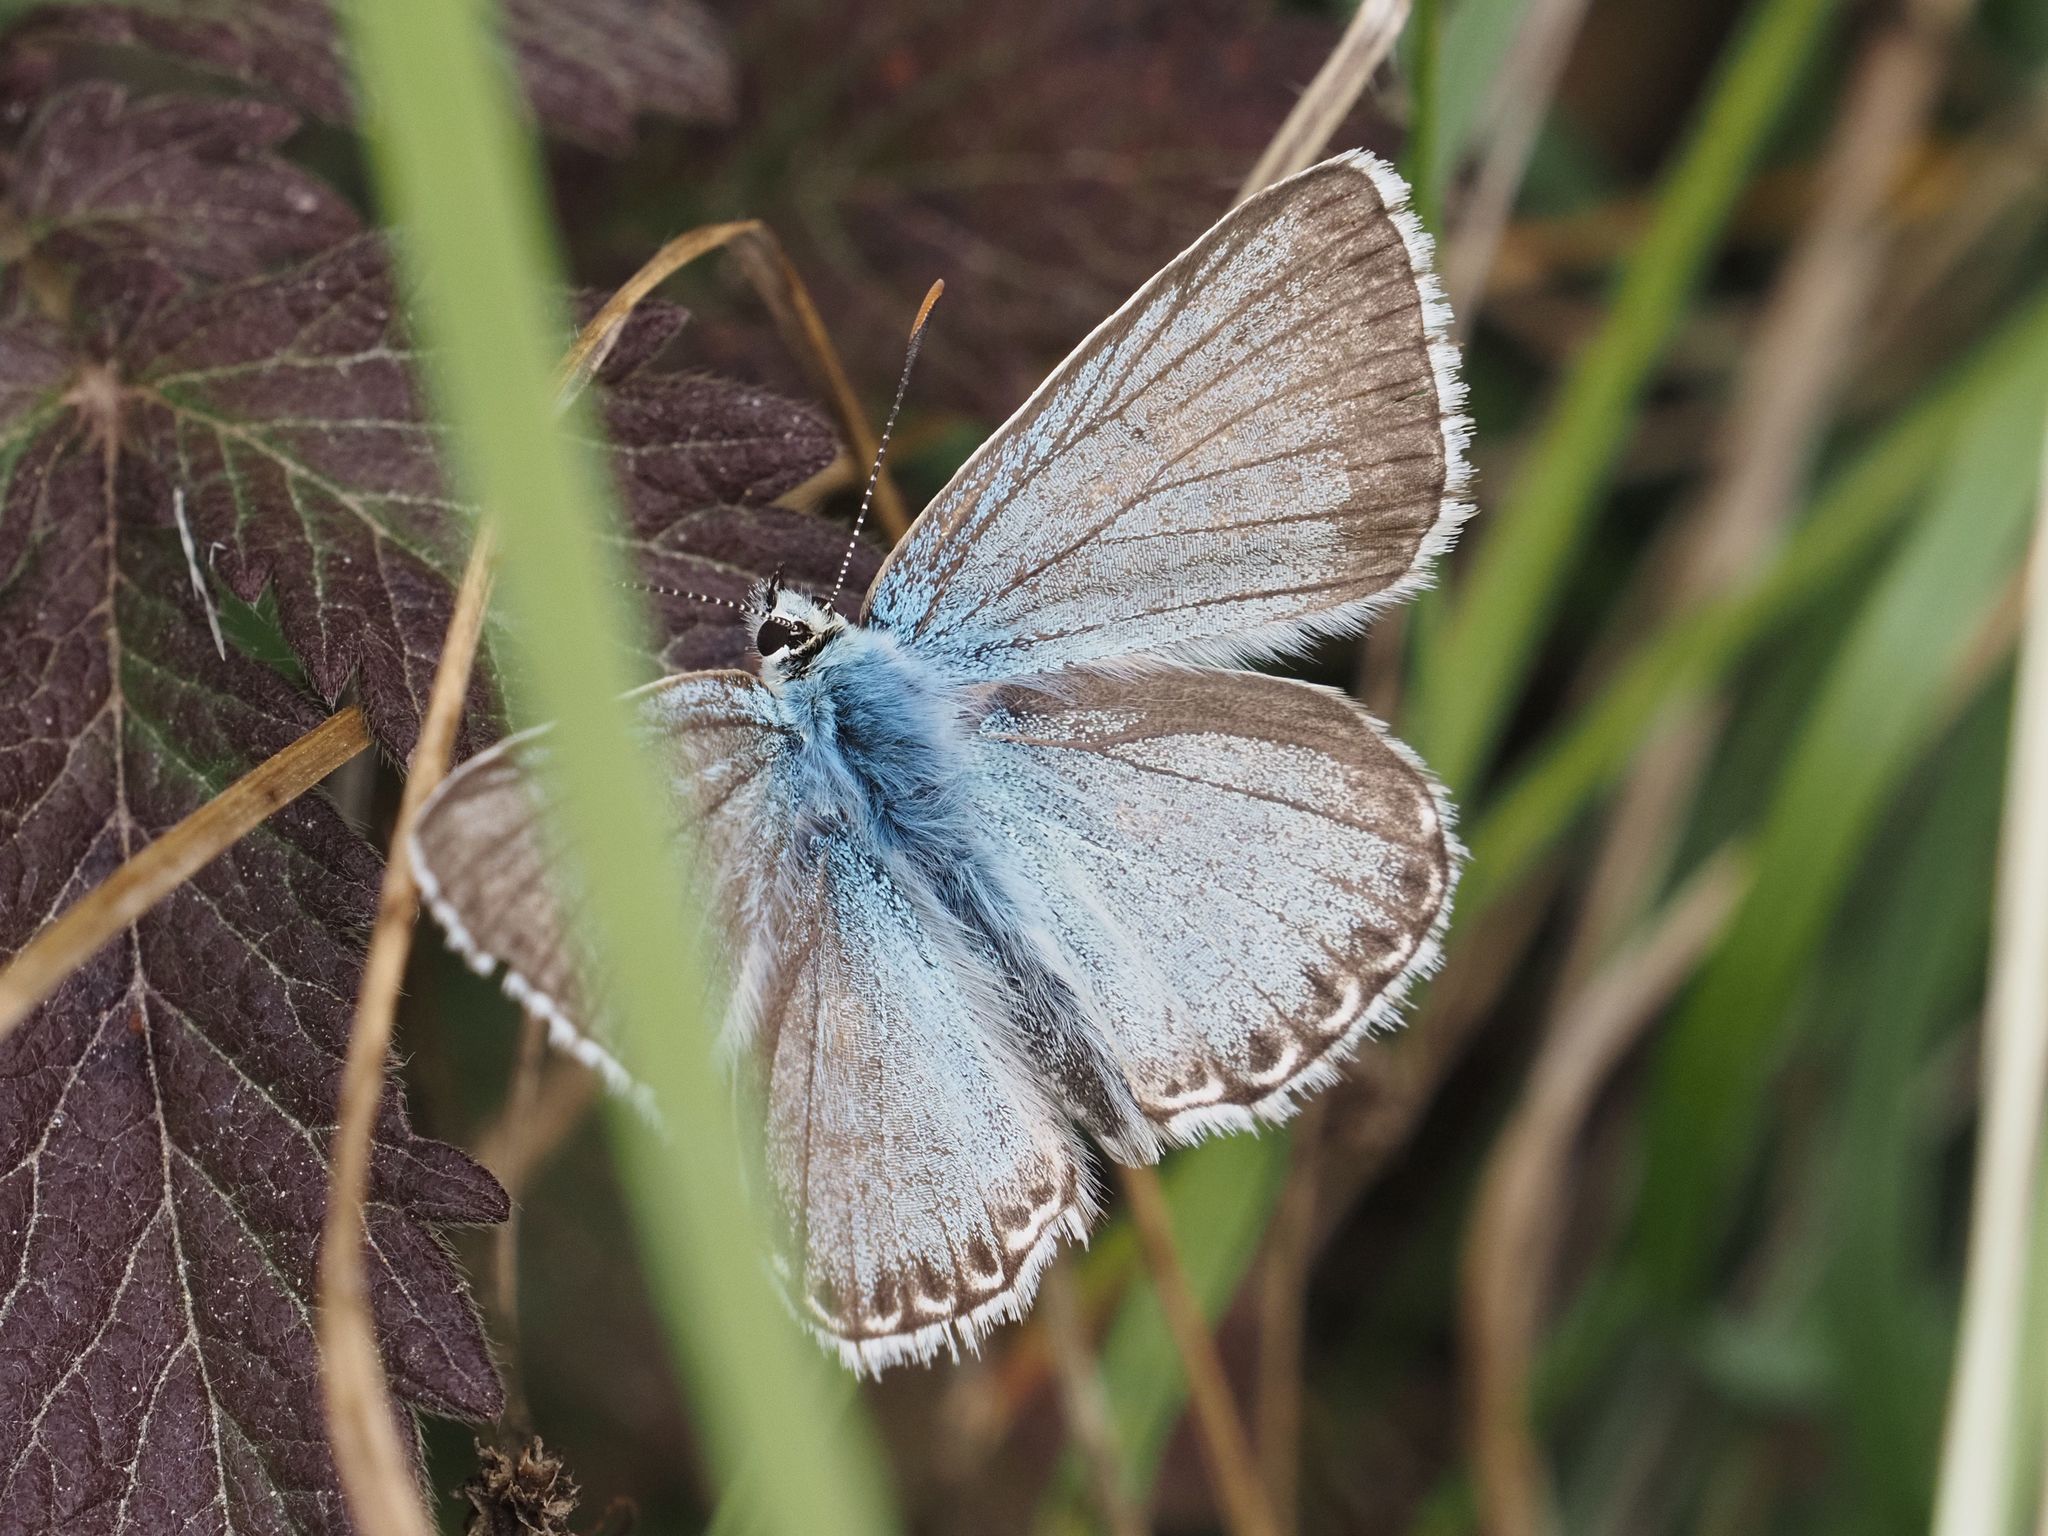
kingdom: Animalia
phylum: Arthropoda
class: Insecta
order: Lepidoptera
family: Lycaenidae
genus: Lysandra
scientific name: Lysandra coridon
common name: Chalkhill blue
